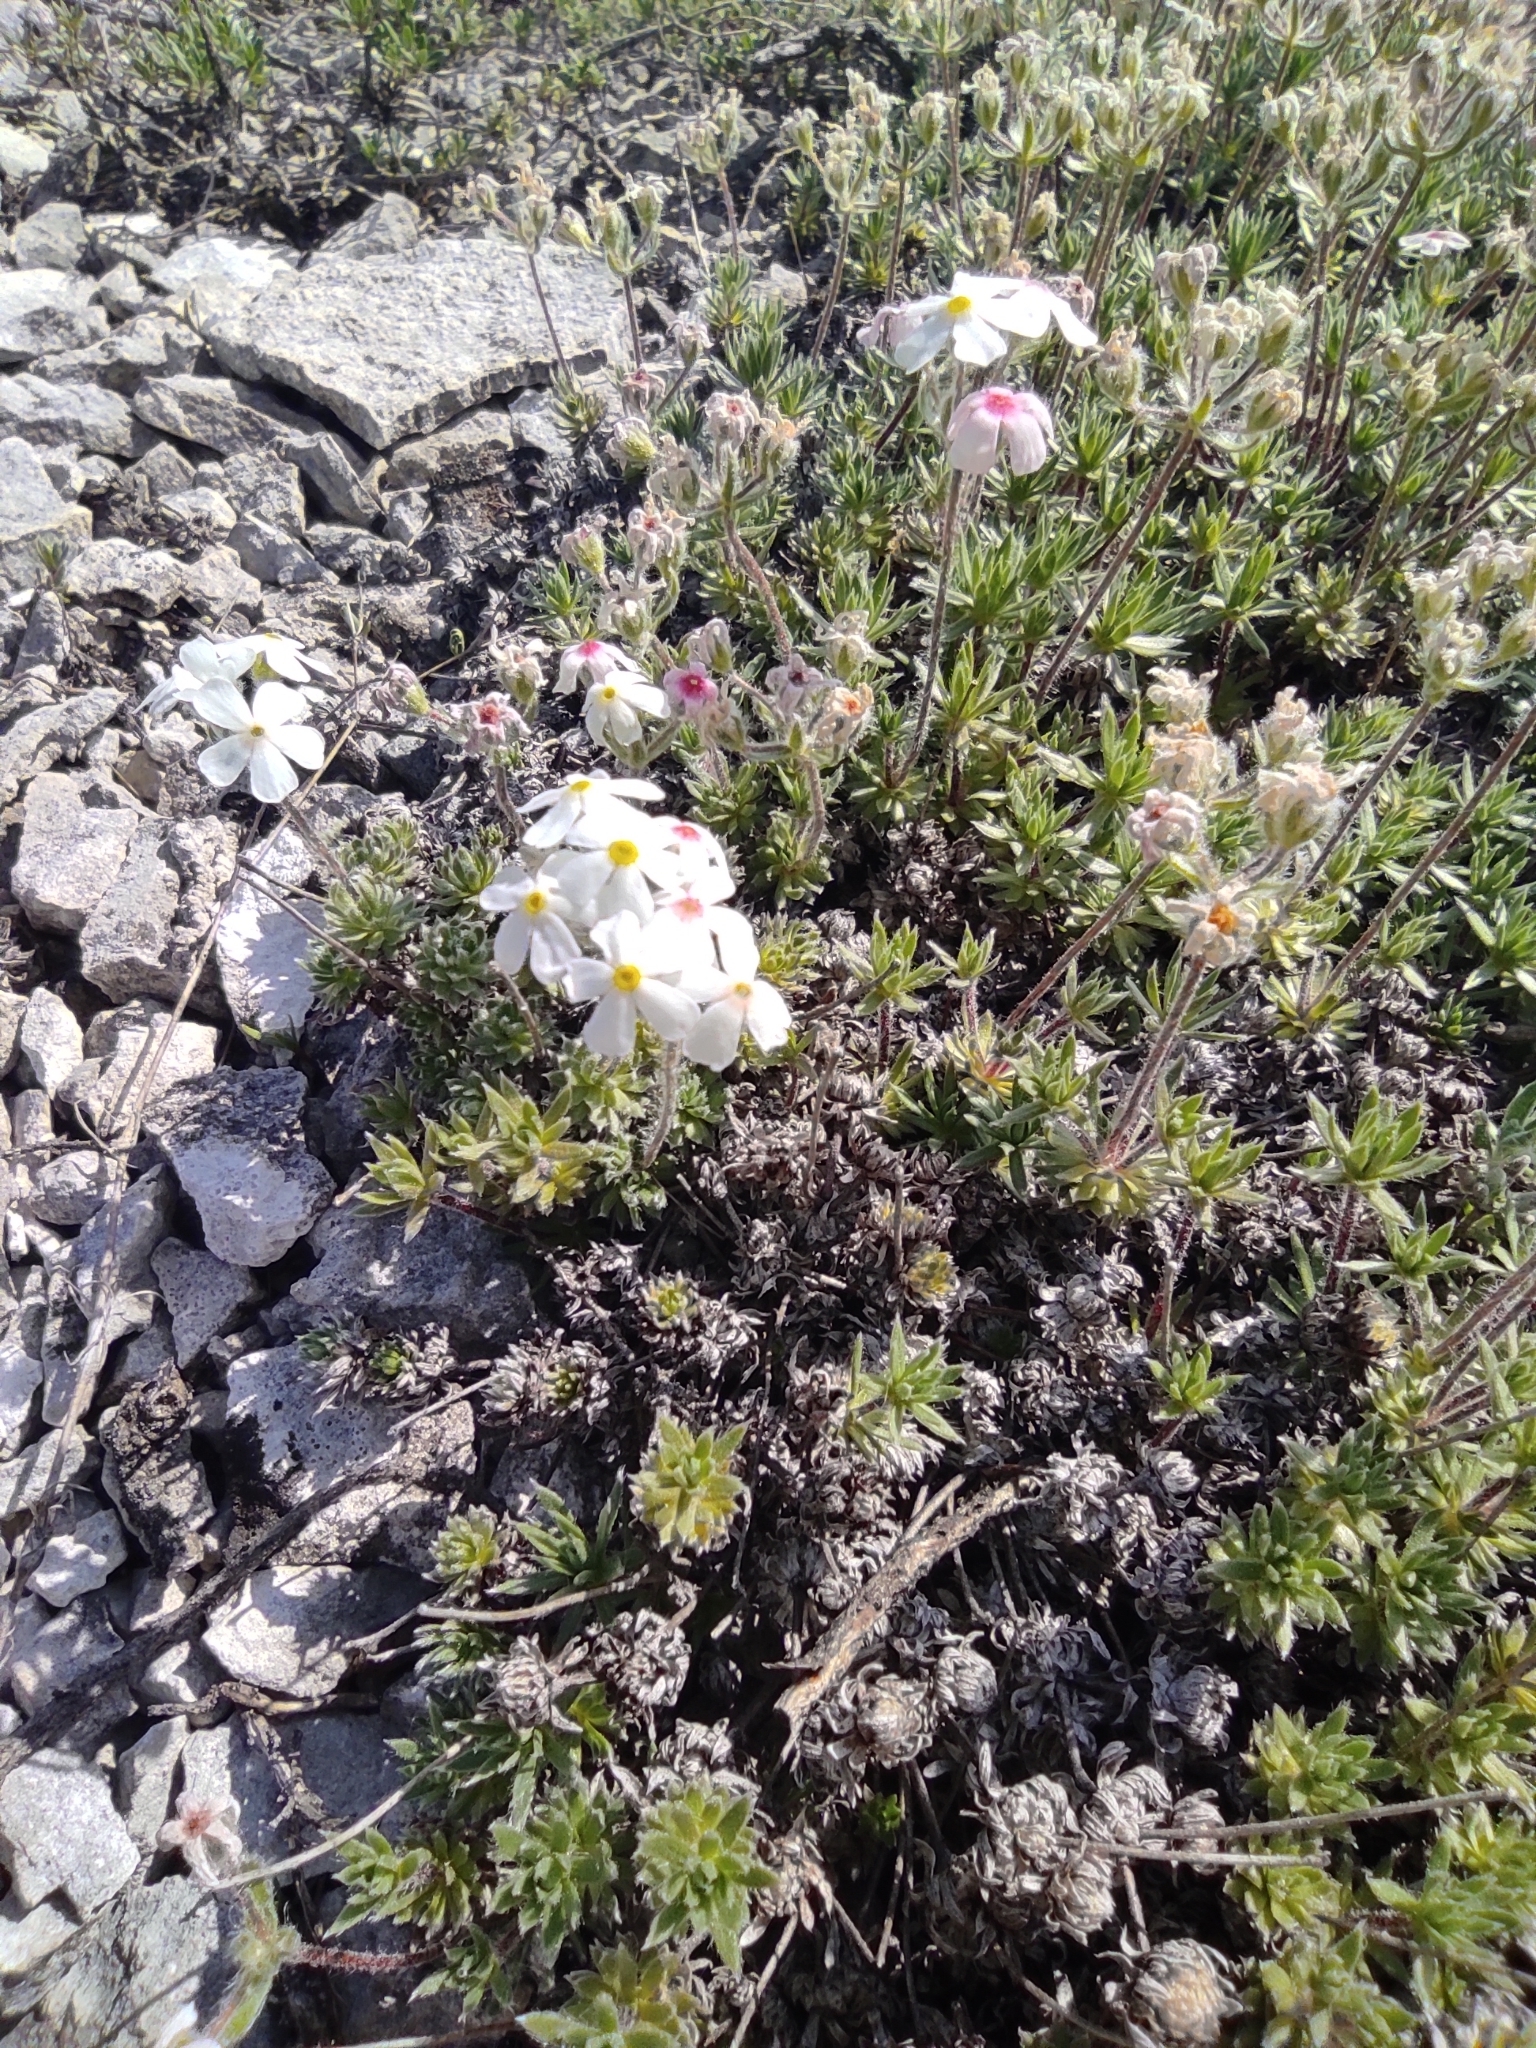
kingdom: Plantae
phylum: Tracheophyta
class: Magnoliopsida
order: Ericales
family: Primulaceae
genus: Androsace
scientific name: Androsace villosa
